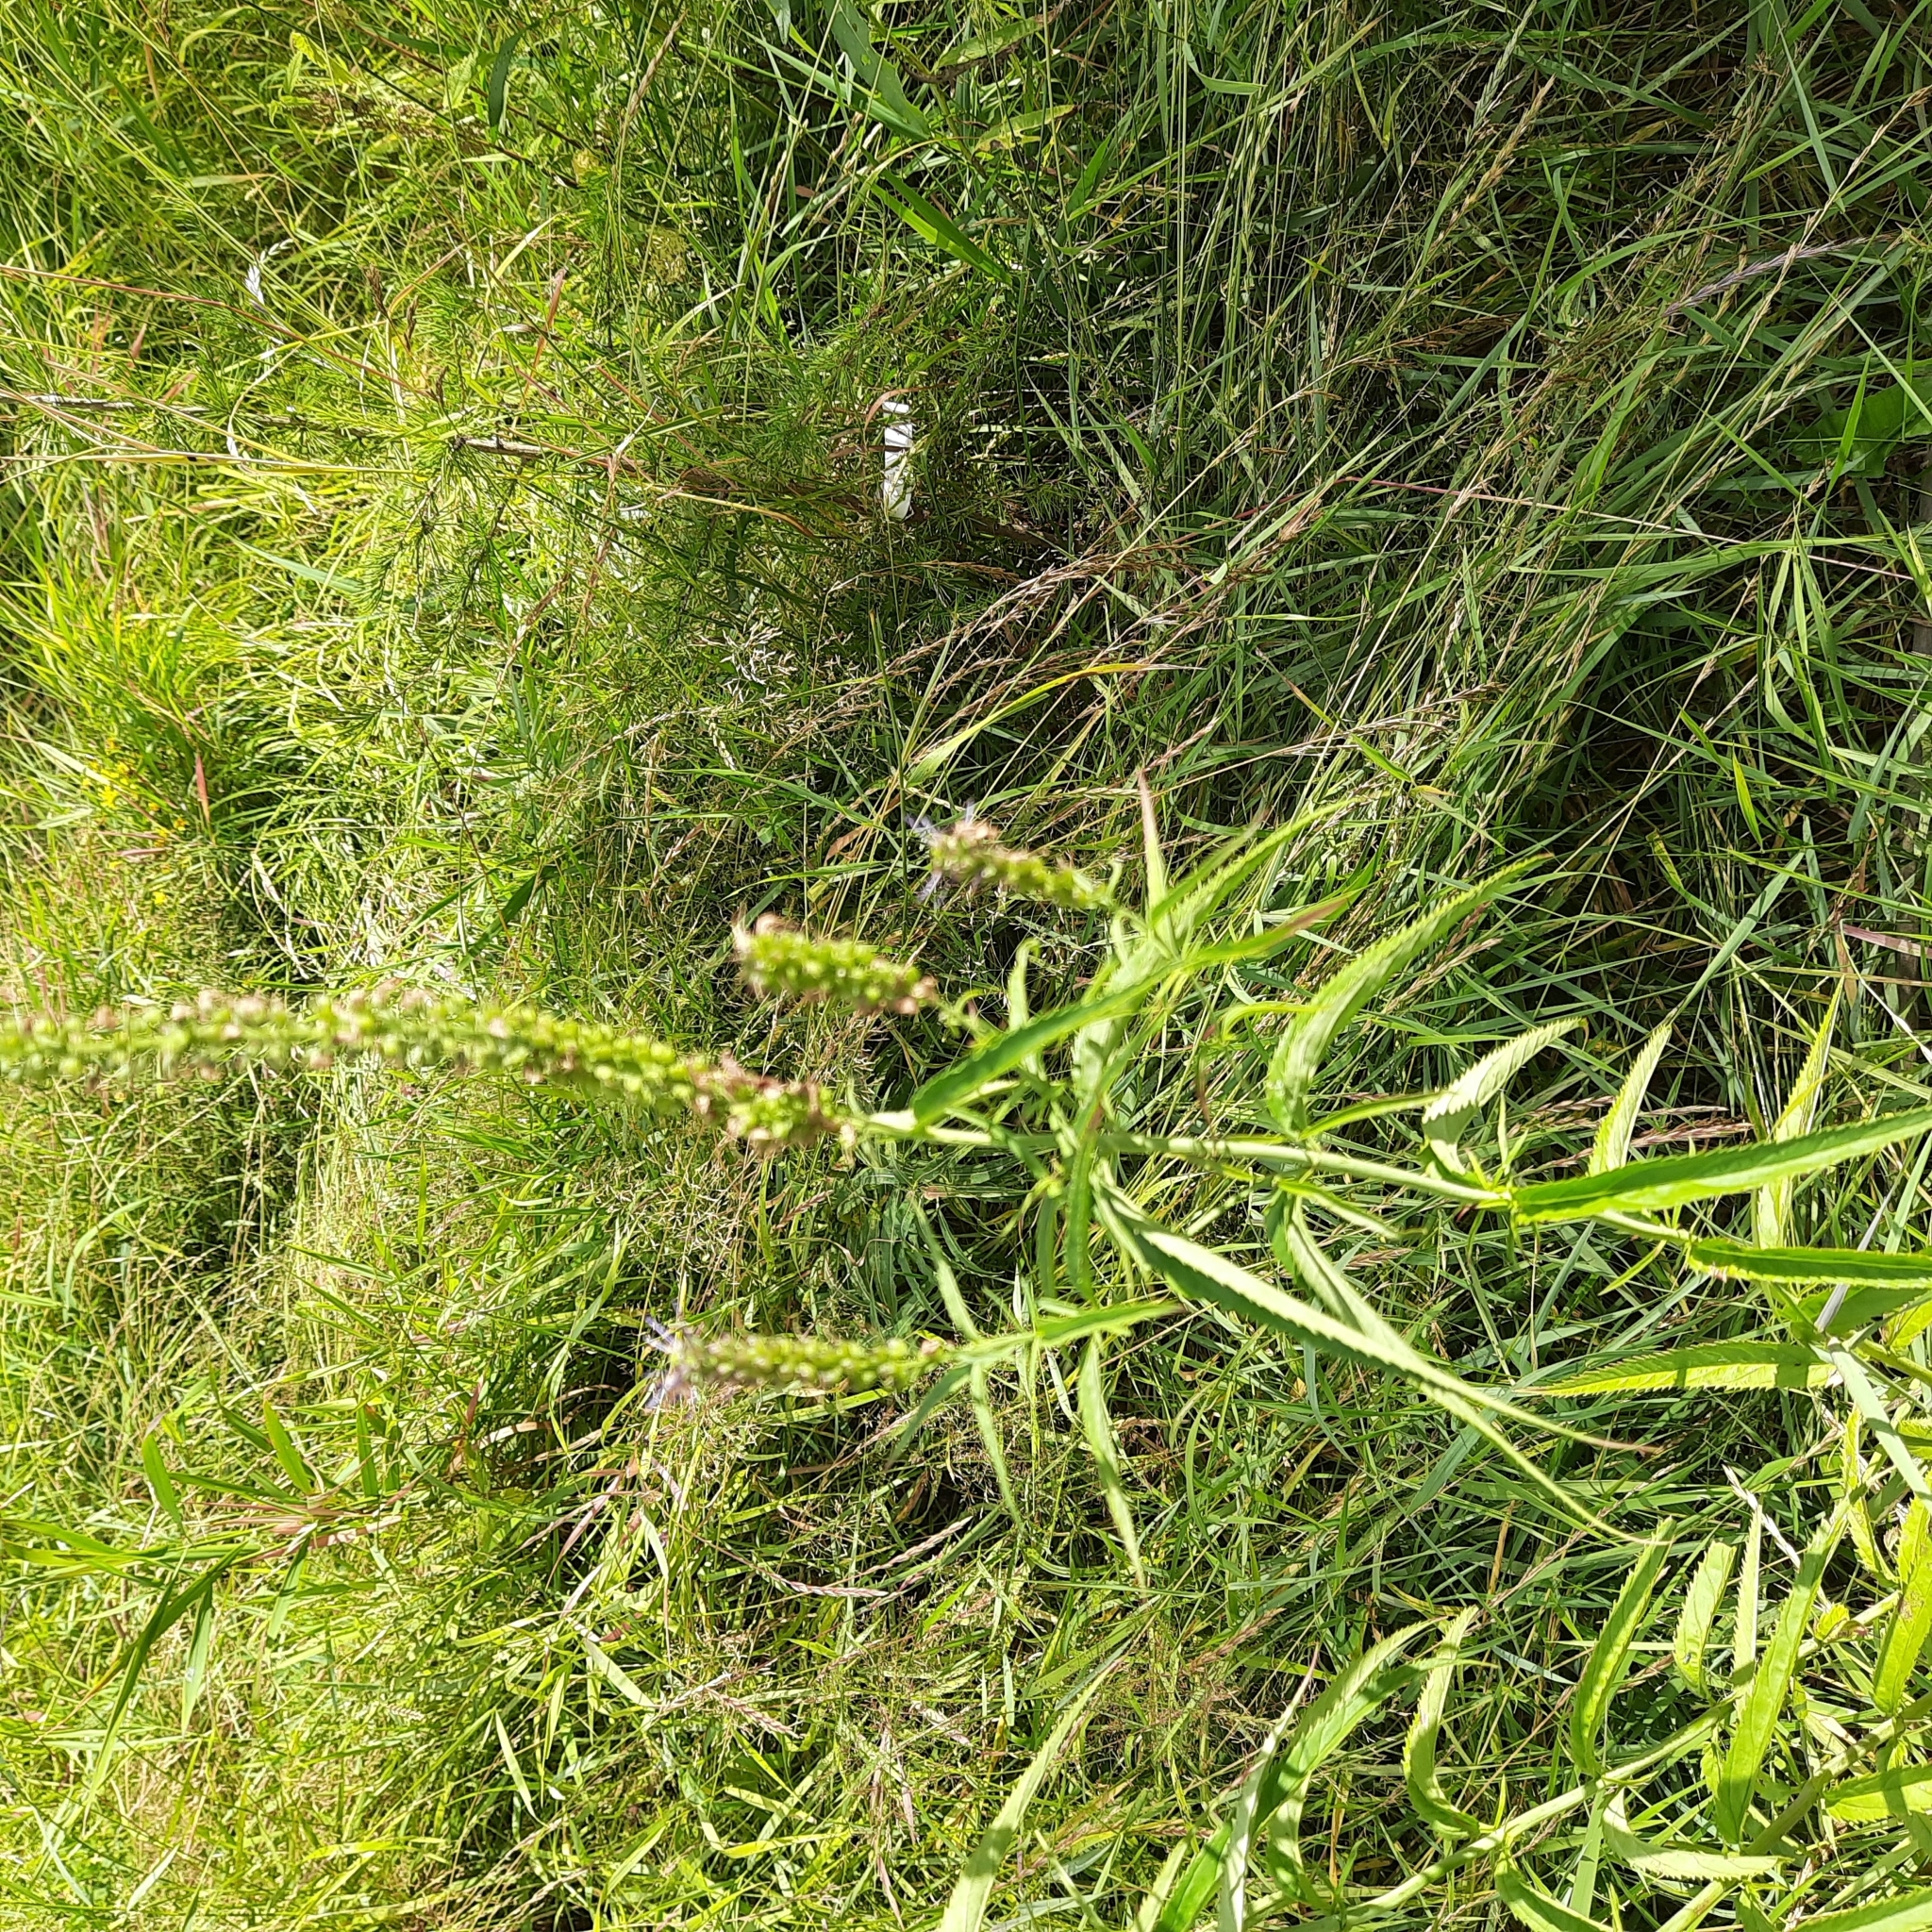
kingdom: Plantae
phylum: Tracheophyta
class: Magnoliopsida
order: Lamiales
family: Plantaginaceae
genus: Veronica
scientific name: Veronica longifolia
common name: Garden speedwell
